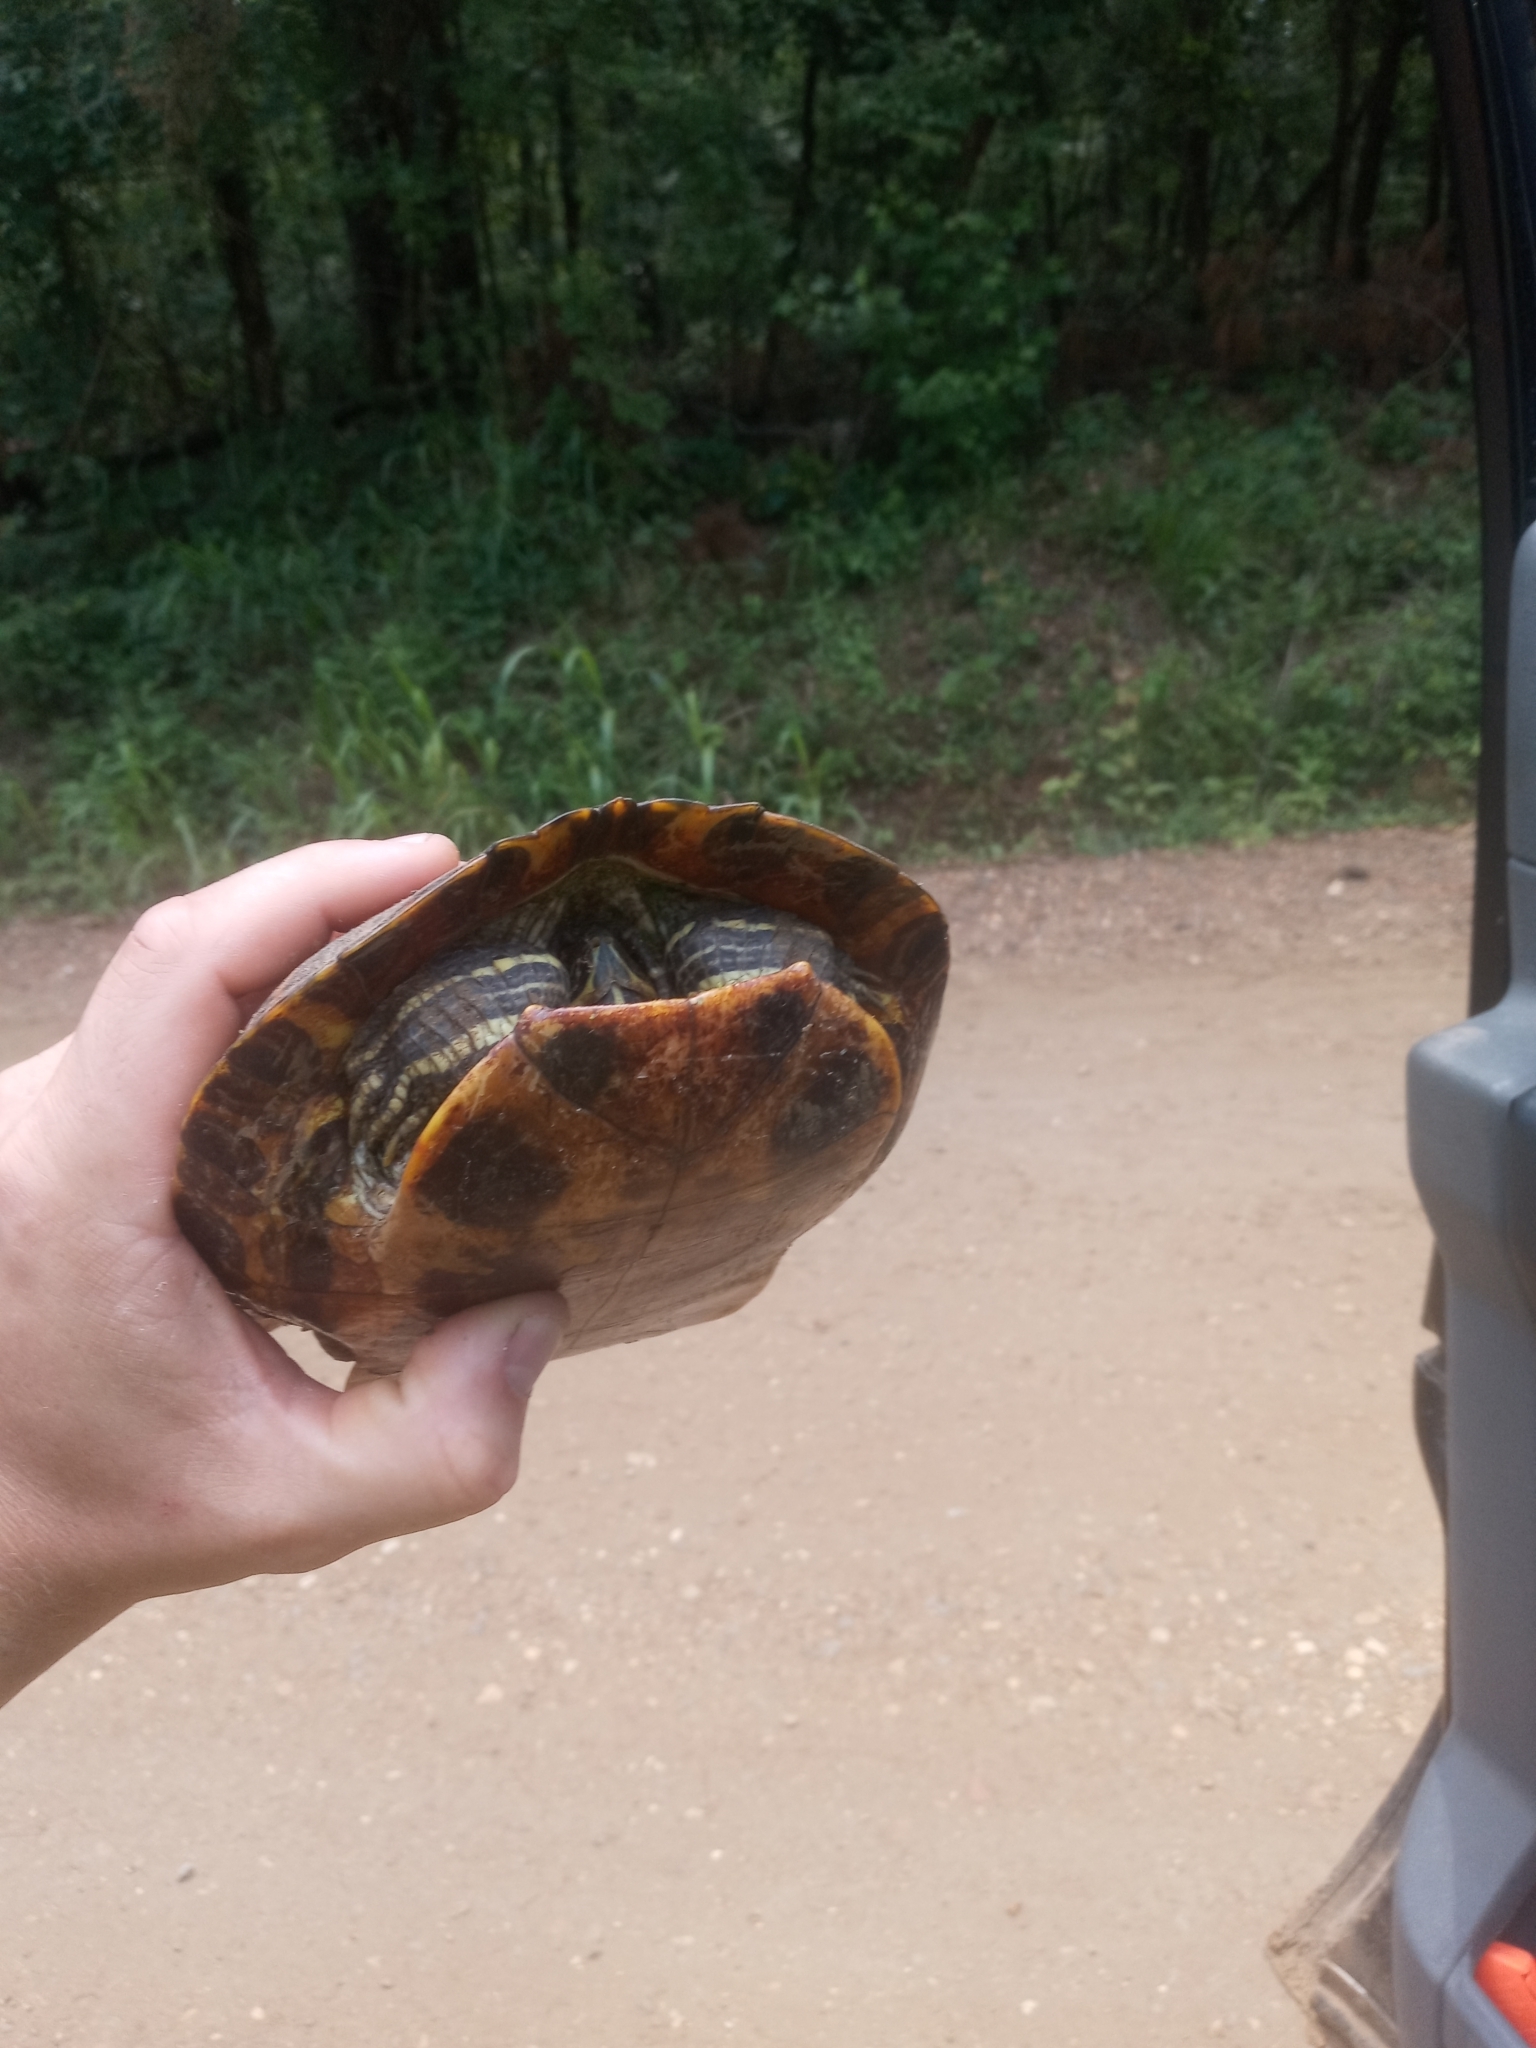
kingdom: Animalia
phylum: Chordata
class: Testudines
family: Emydidae
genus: Trachemys
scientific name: Trachemys scripta
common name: Slider
